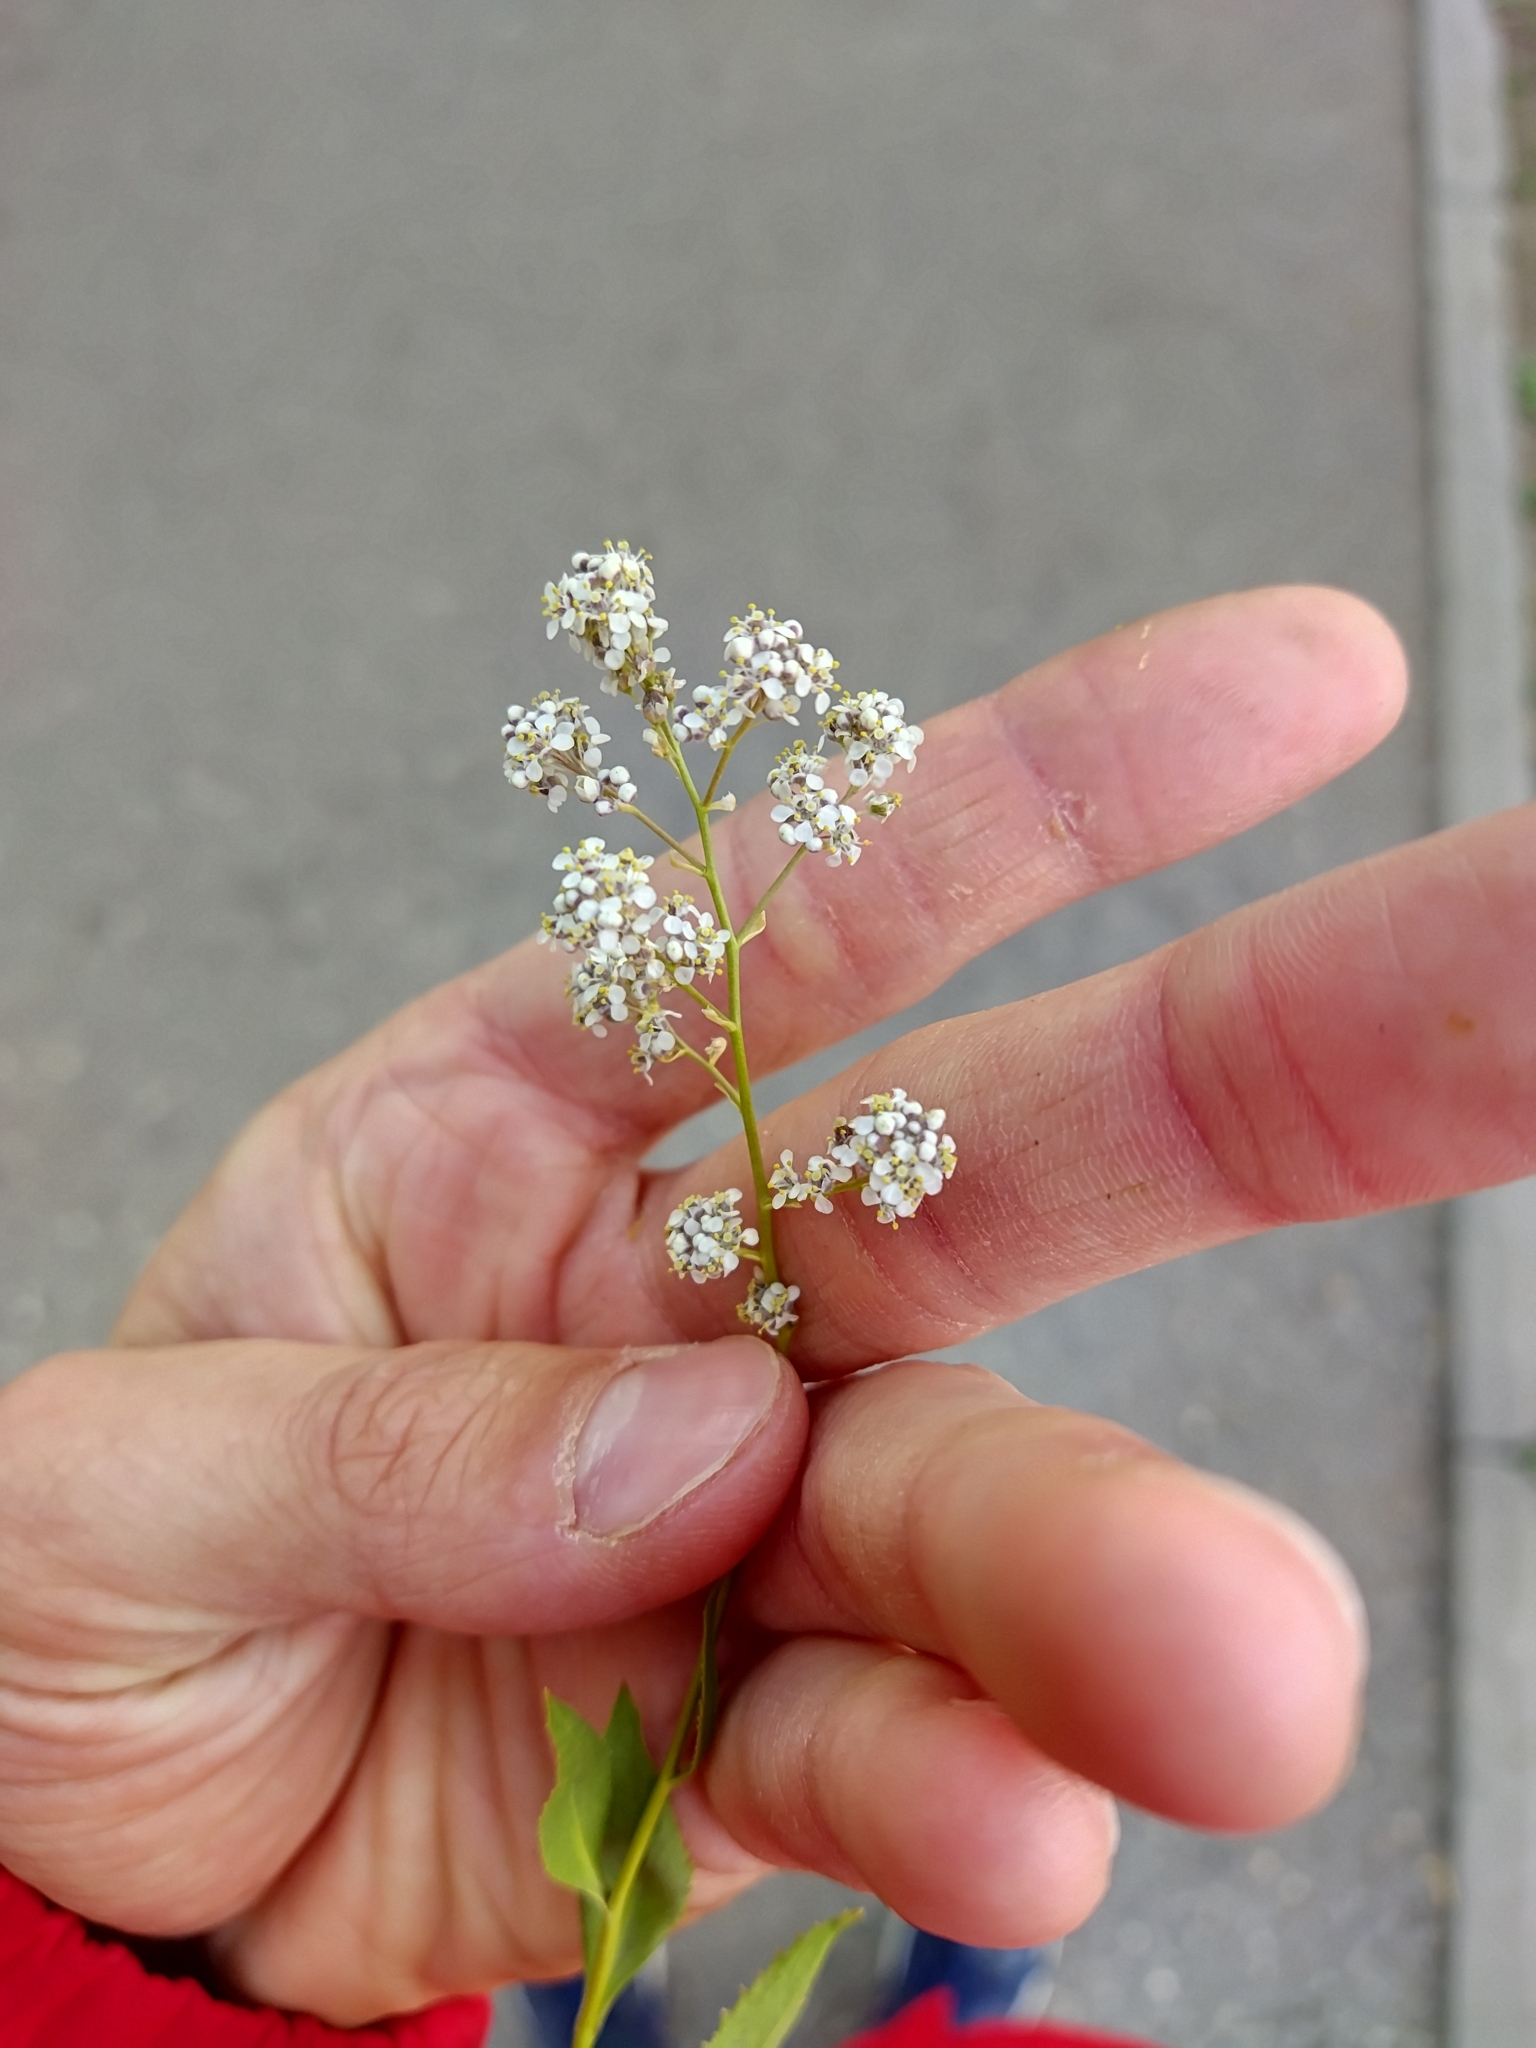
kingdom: Plantae
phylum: Tracheophyta
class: Magnoliopsida
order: Brassicales
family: Brassicaceae
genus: Lepidium
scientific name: Lepidium latifolium
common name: Dittander
